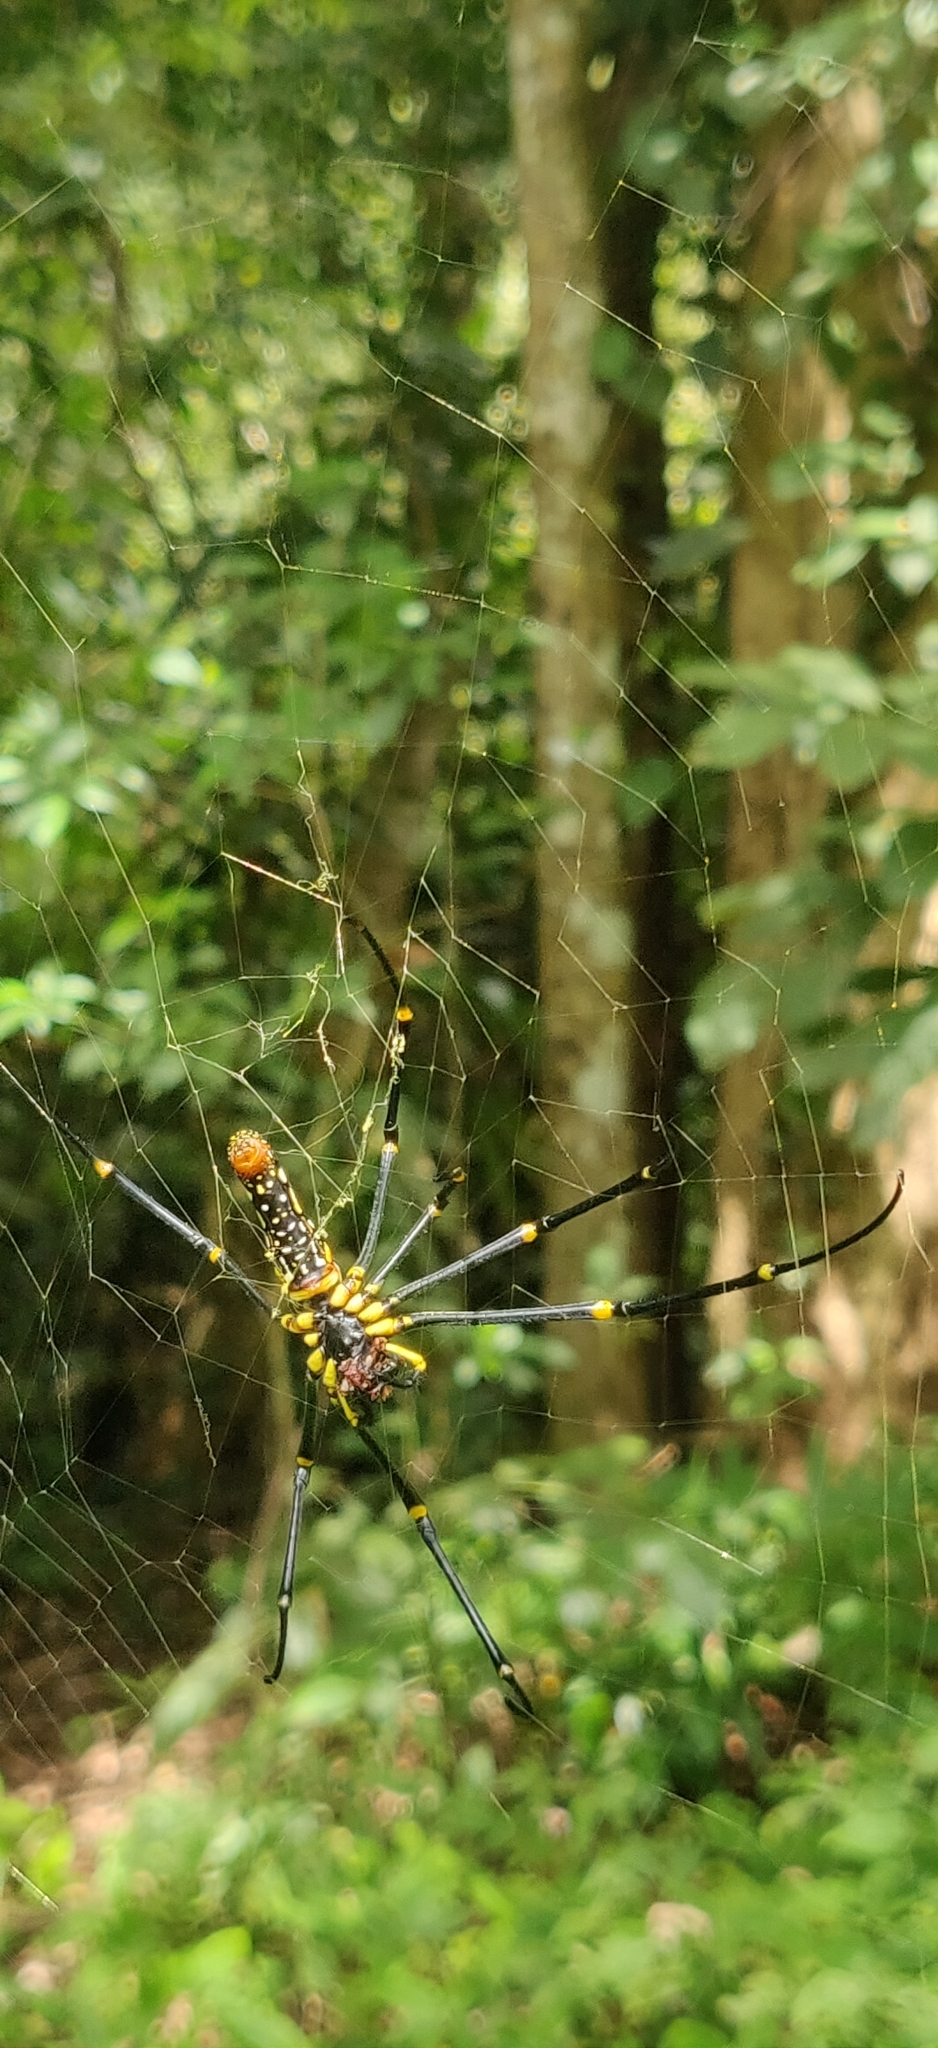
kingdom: Animalia
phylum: Arthropoda
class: Arachnida
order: Araneae
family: Araneidae
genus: Nephila
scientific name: Nephila pilipes
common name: Giant golden orb weaver
